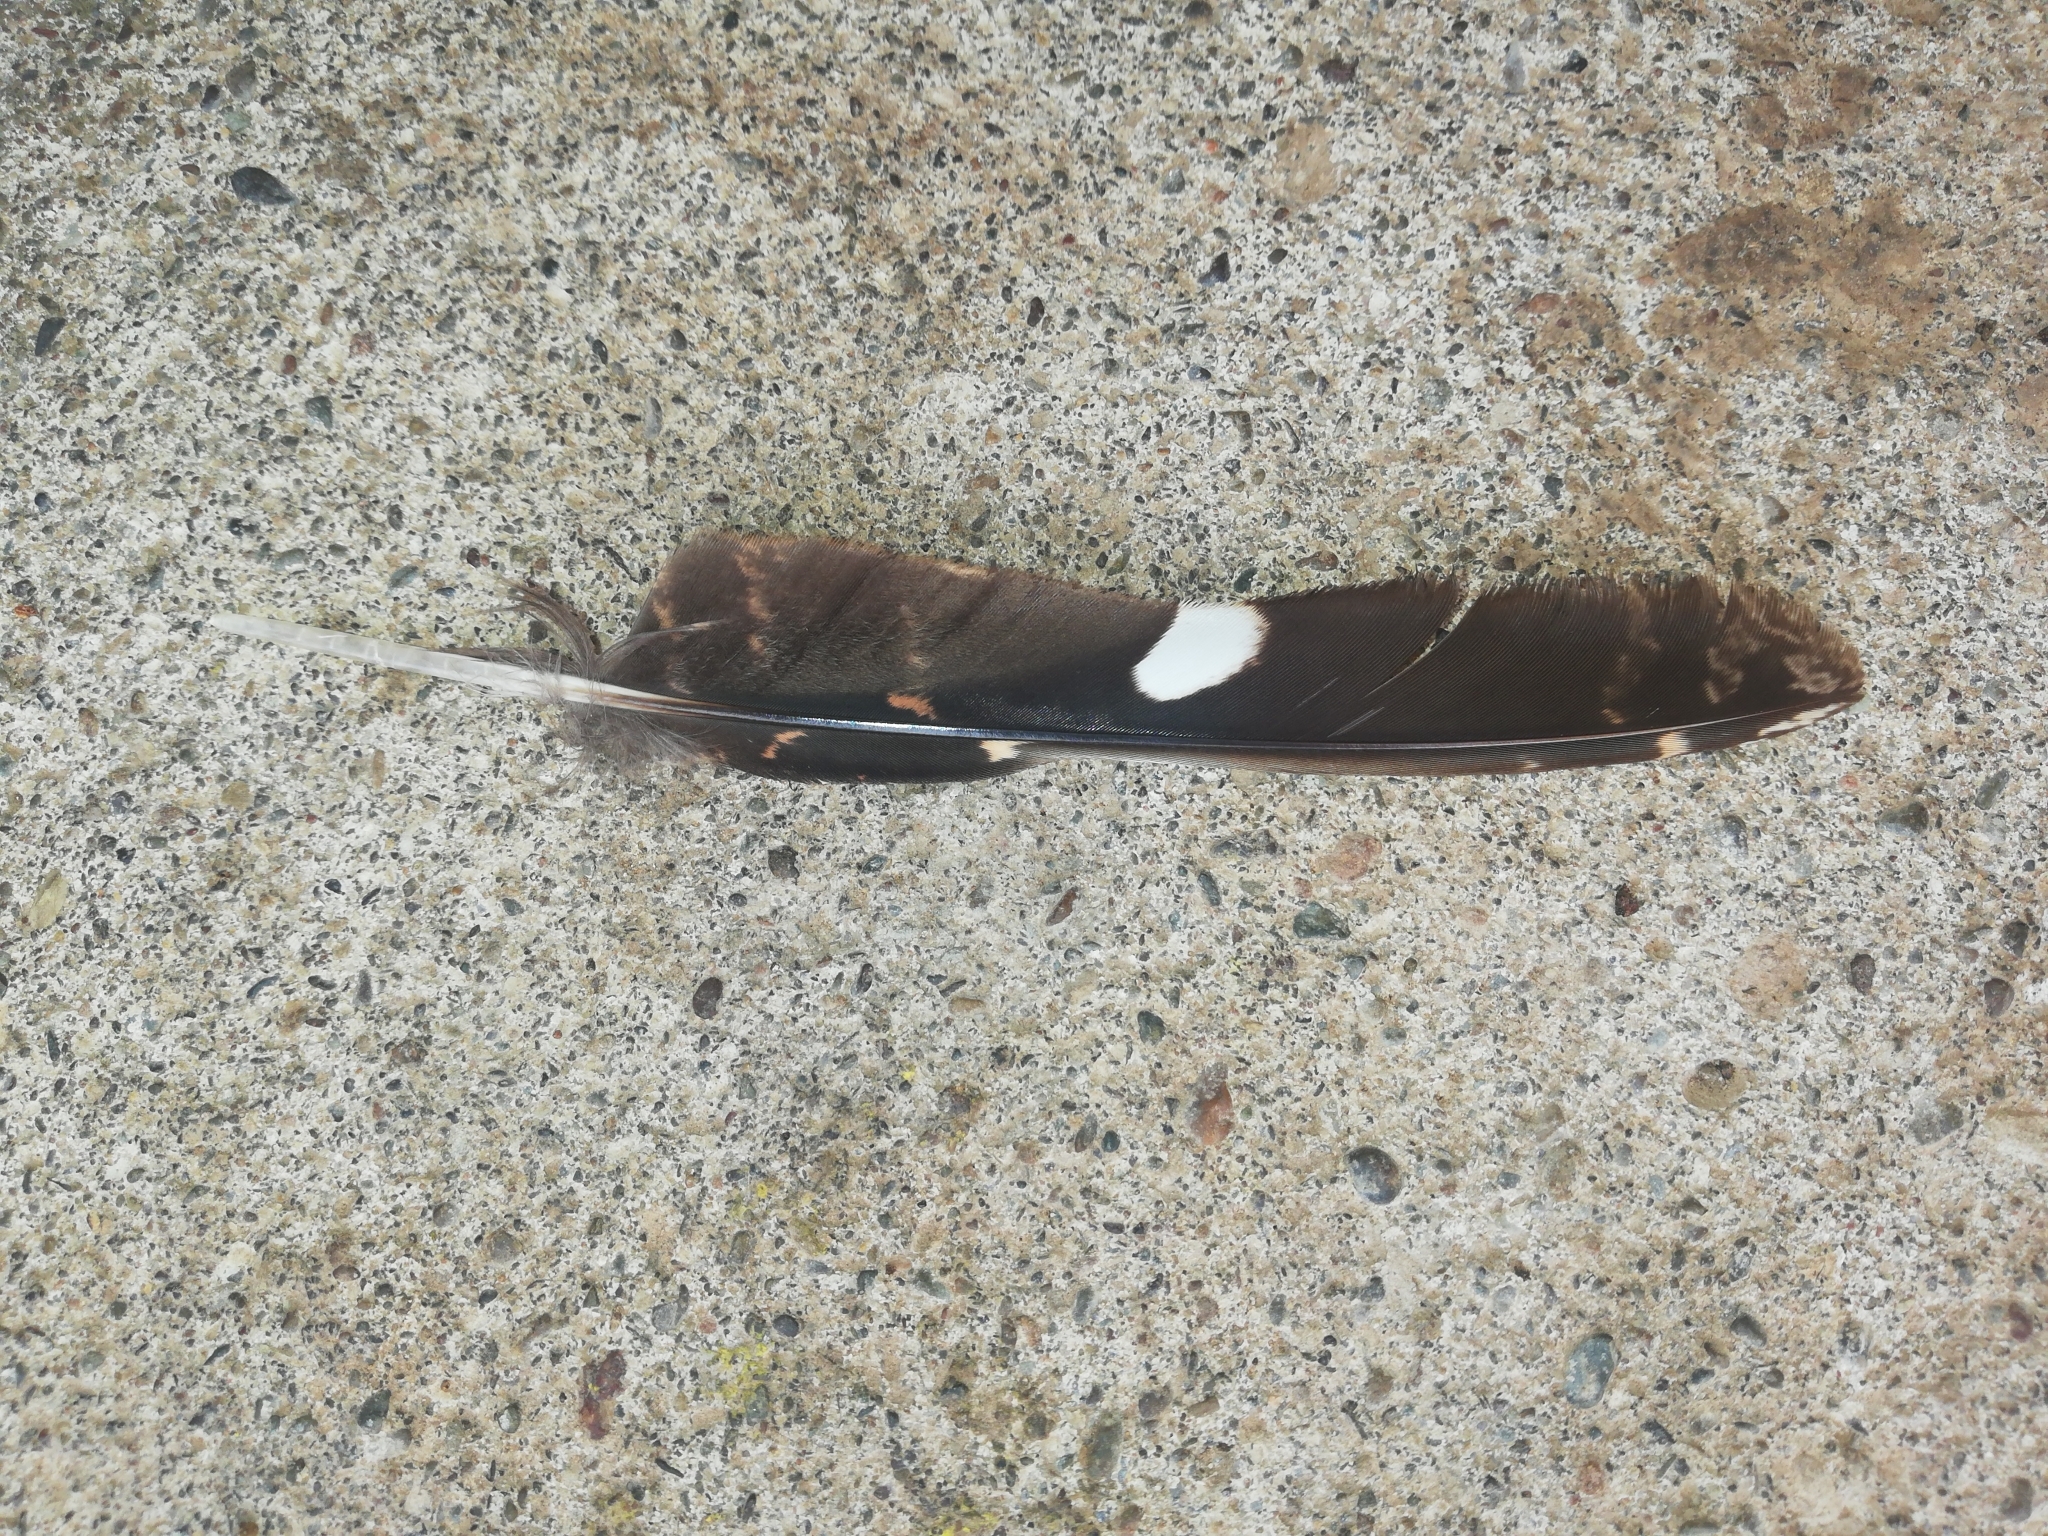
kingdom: Animalia
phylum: Chordata
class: Aves
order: Caprimulgiformes
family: Caprimulgidae
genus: Caprimulgus
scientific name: Caprimulgus tristigma
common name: Freckled nightjar
